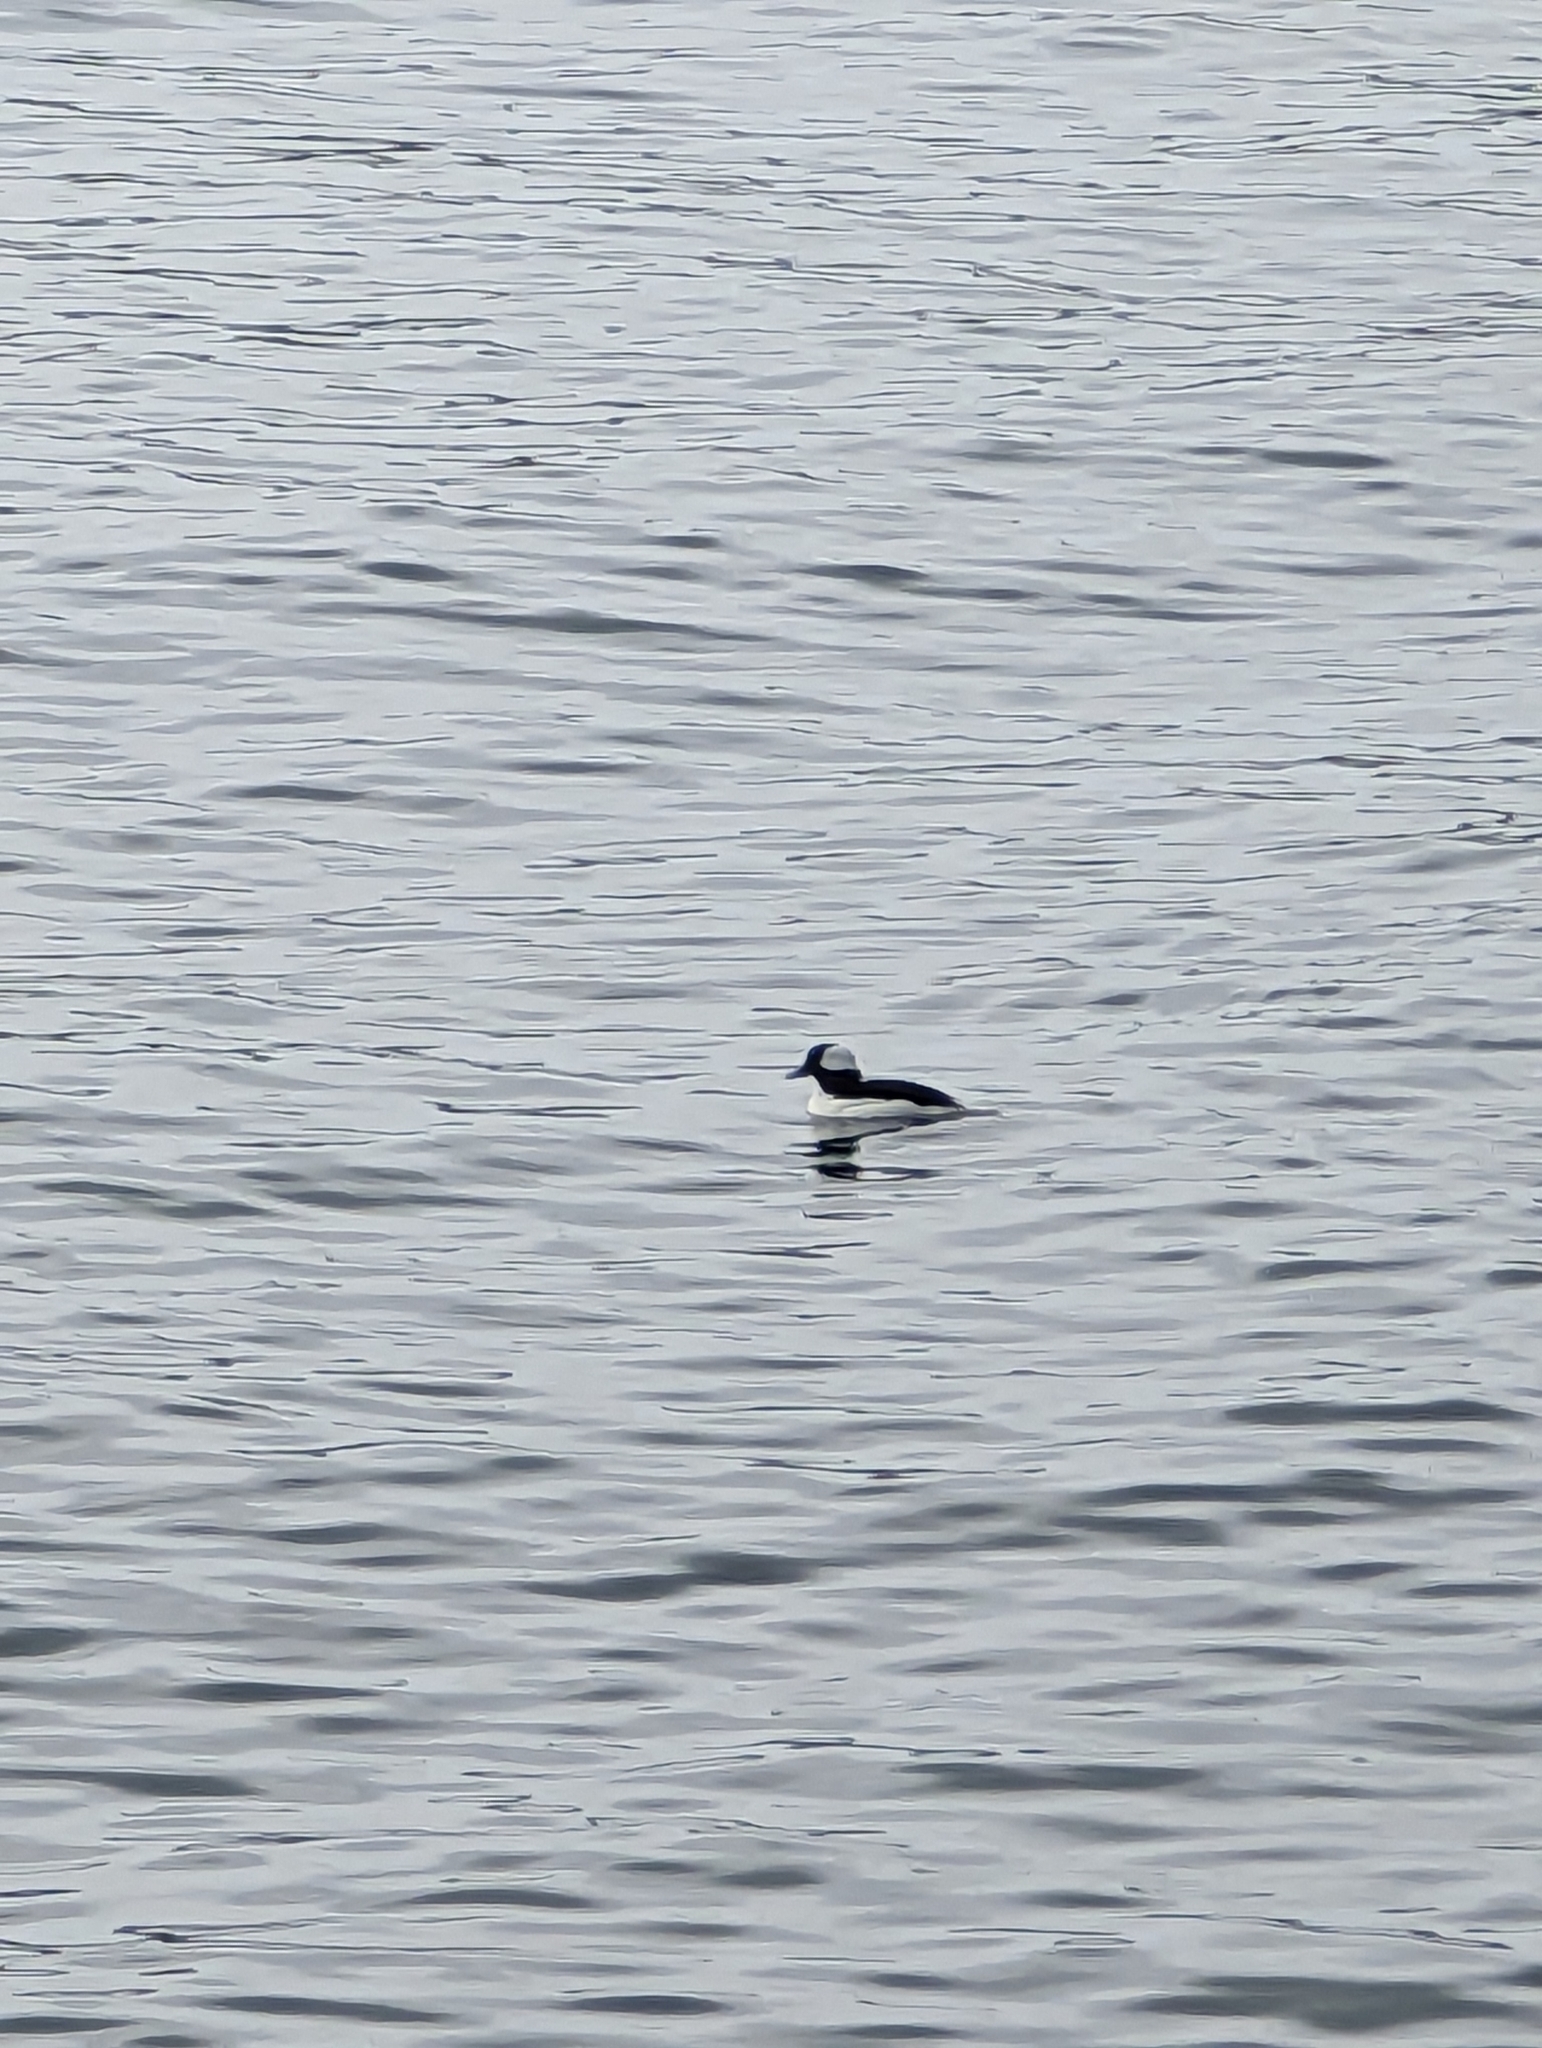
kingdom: Animalia
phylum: Chordata
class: Aves
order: Anseriformes
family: Anatidae
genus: Bucephala
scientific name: Bucephala albeola
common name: Bufflehead
